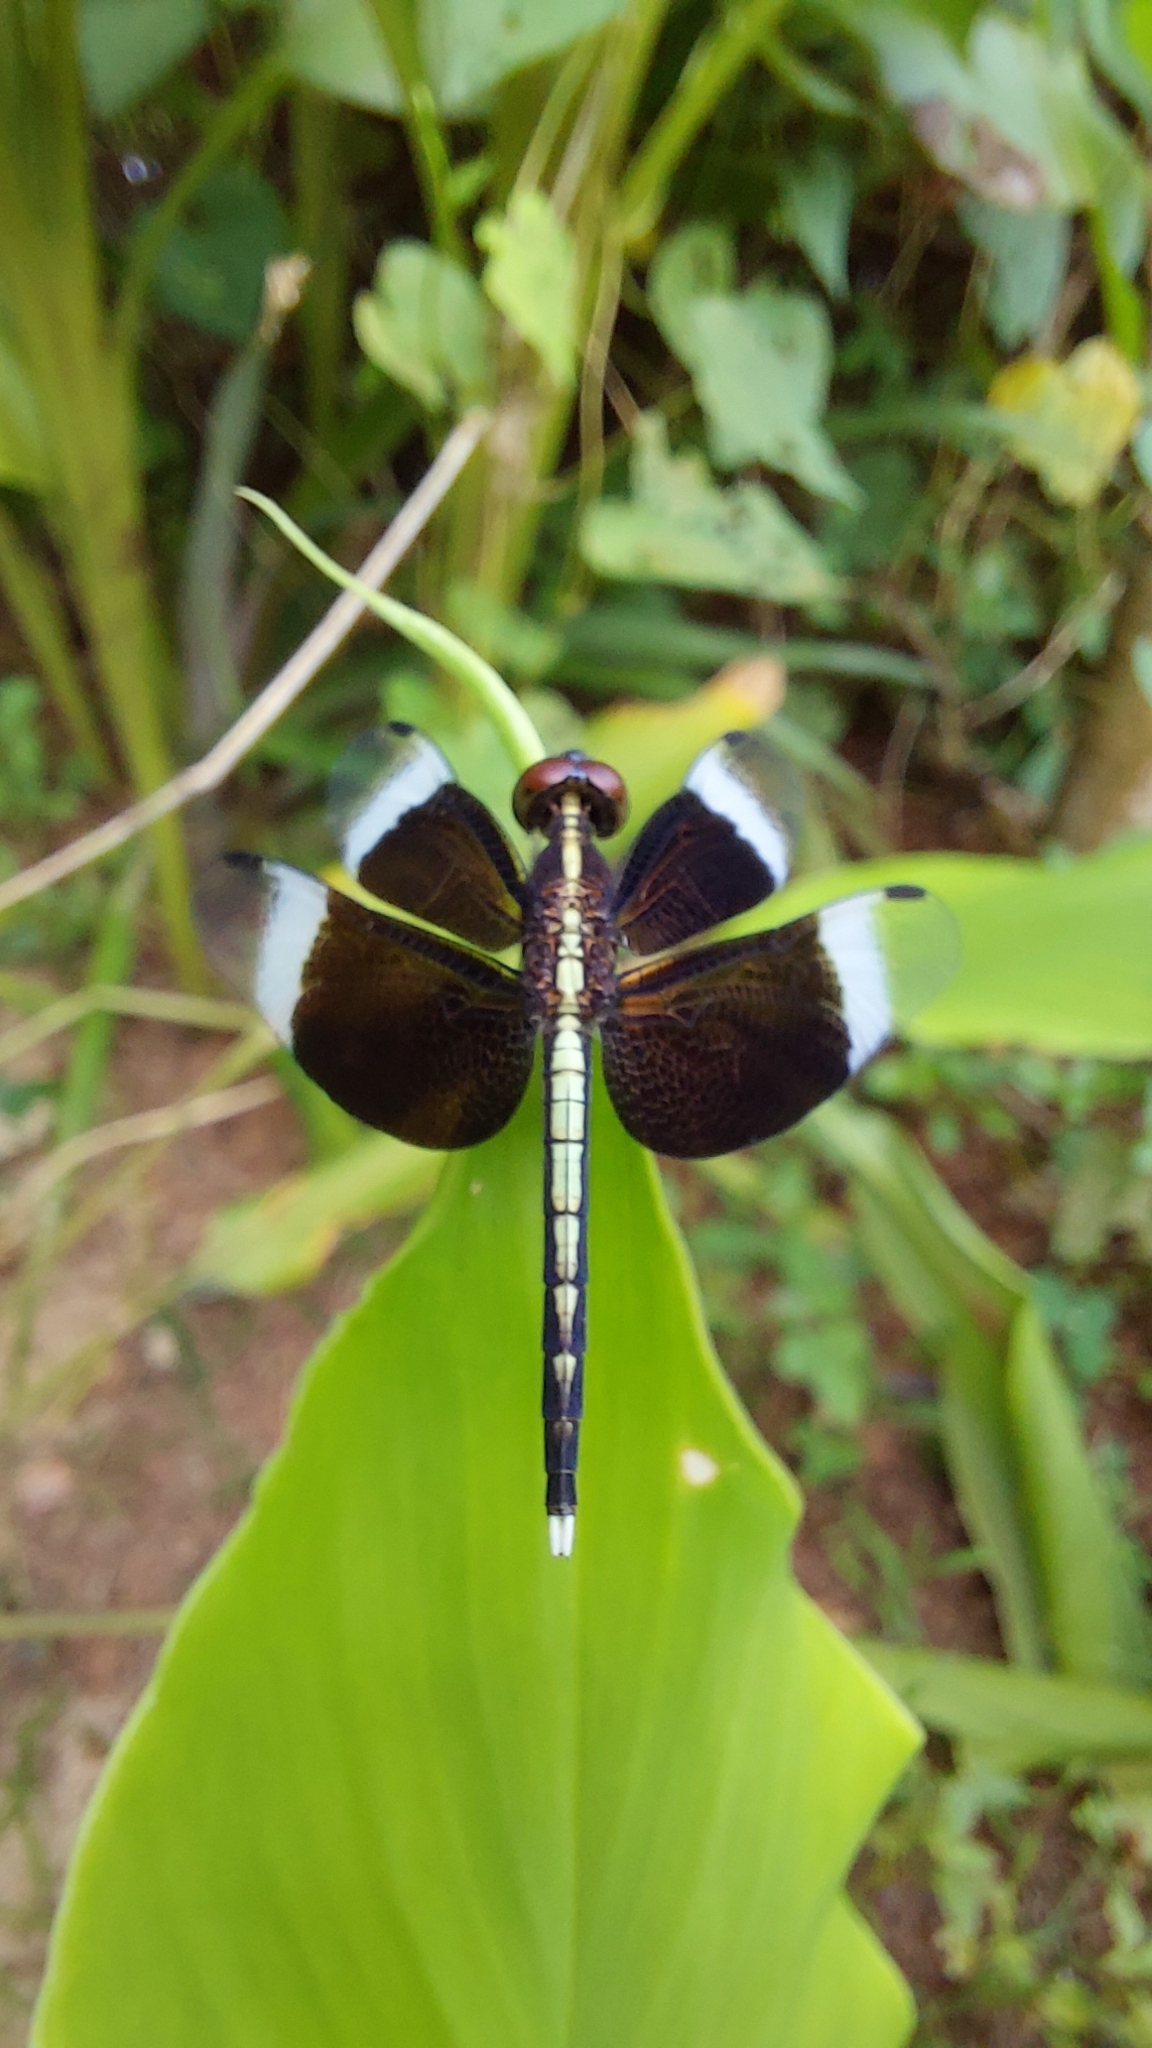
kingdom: Animalia
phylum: Arthropoda
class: Insecta
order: Odonata
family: Libellulidae
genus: Neurothemis
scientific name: Neurothemis tullia
